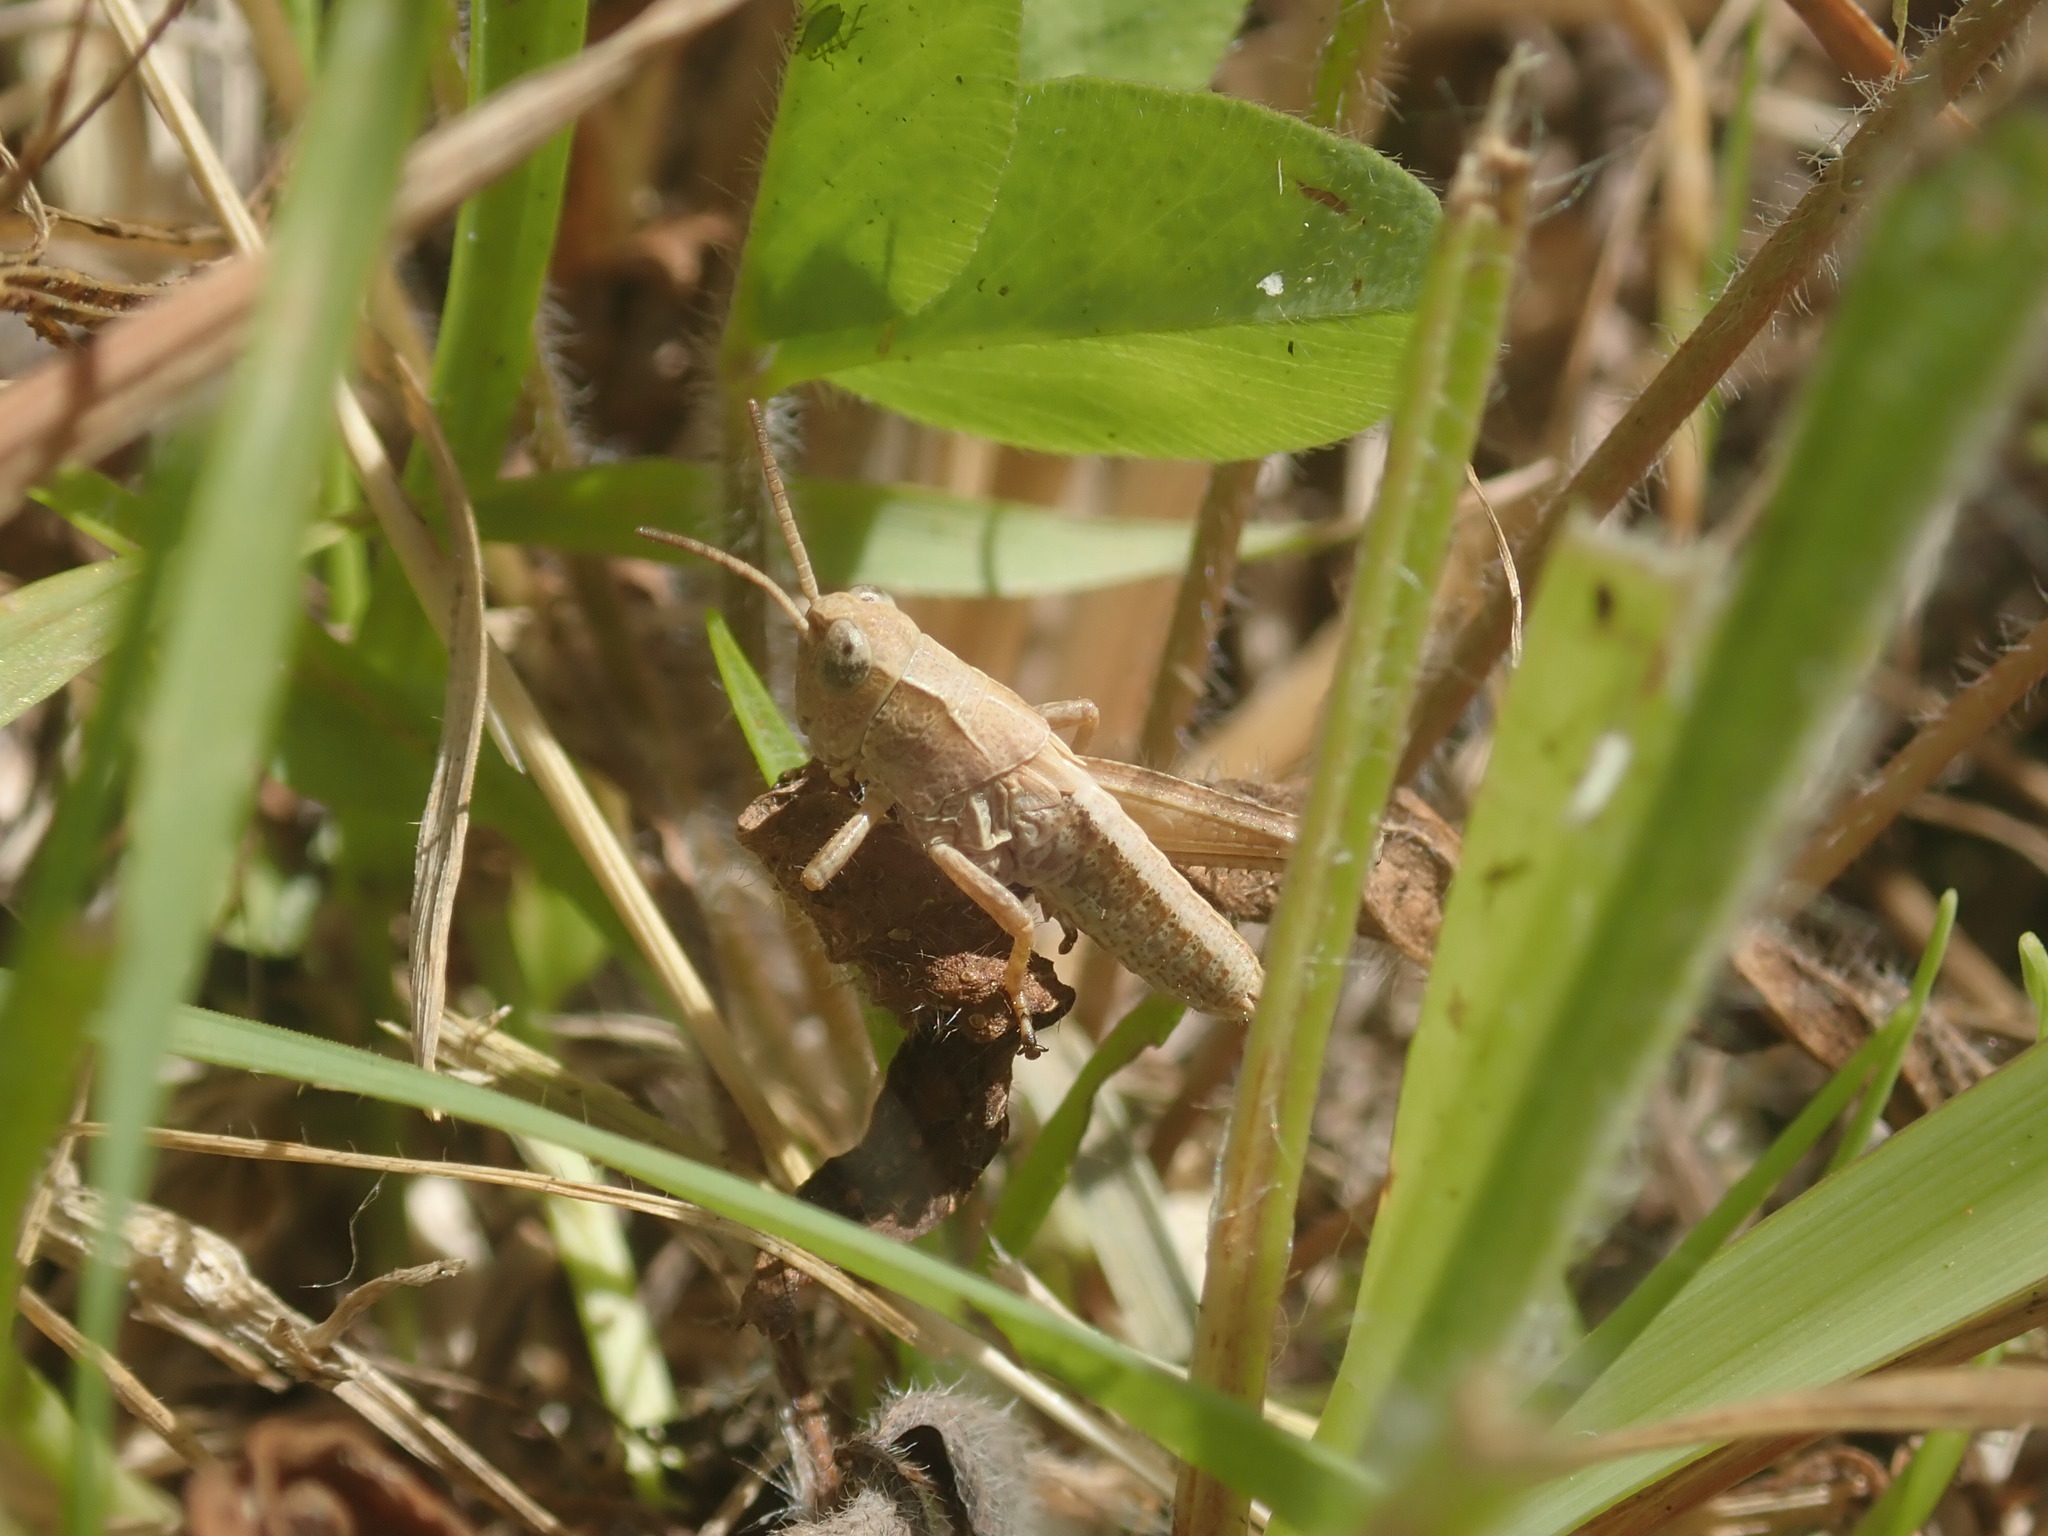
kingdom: Animalia
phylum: Arthropoda
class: Insecta
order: Orthoptera
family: Acrididae
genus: Phaulacridium
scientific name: Phaulacridium marginale
